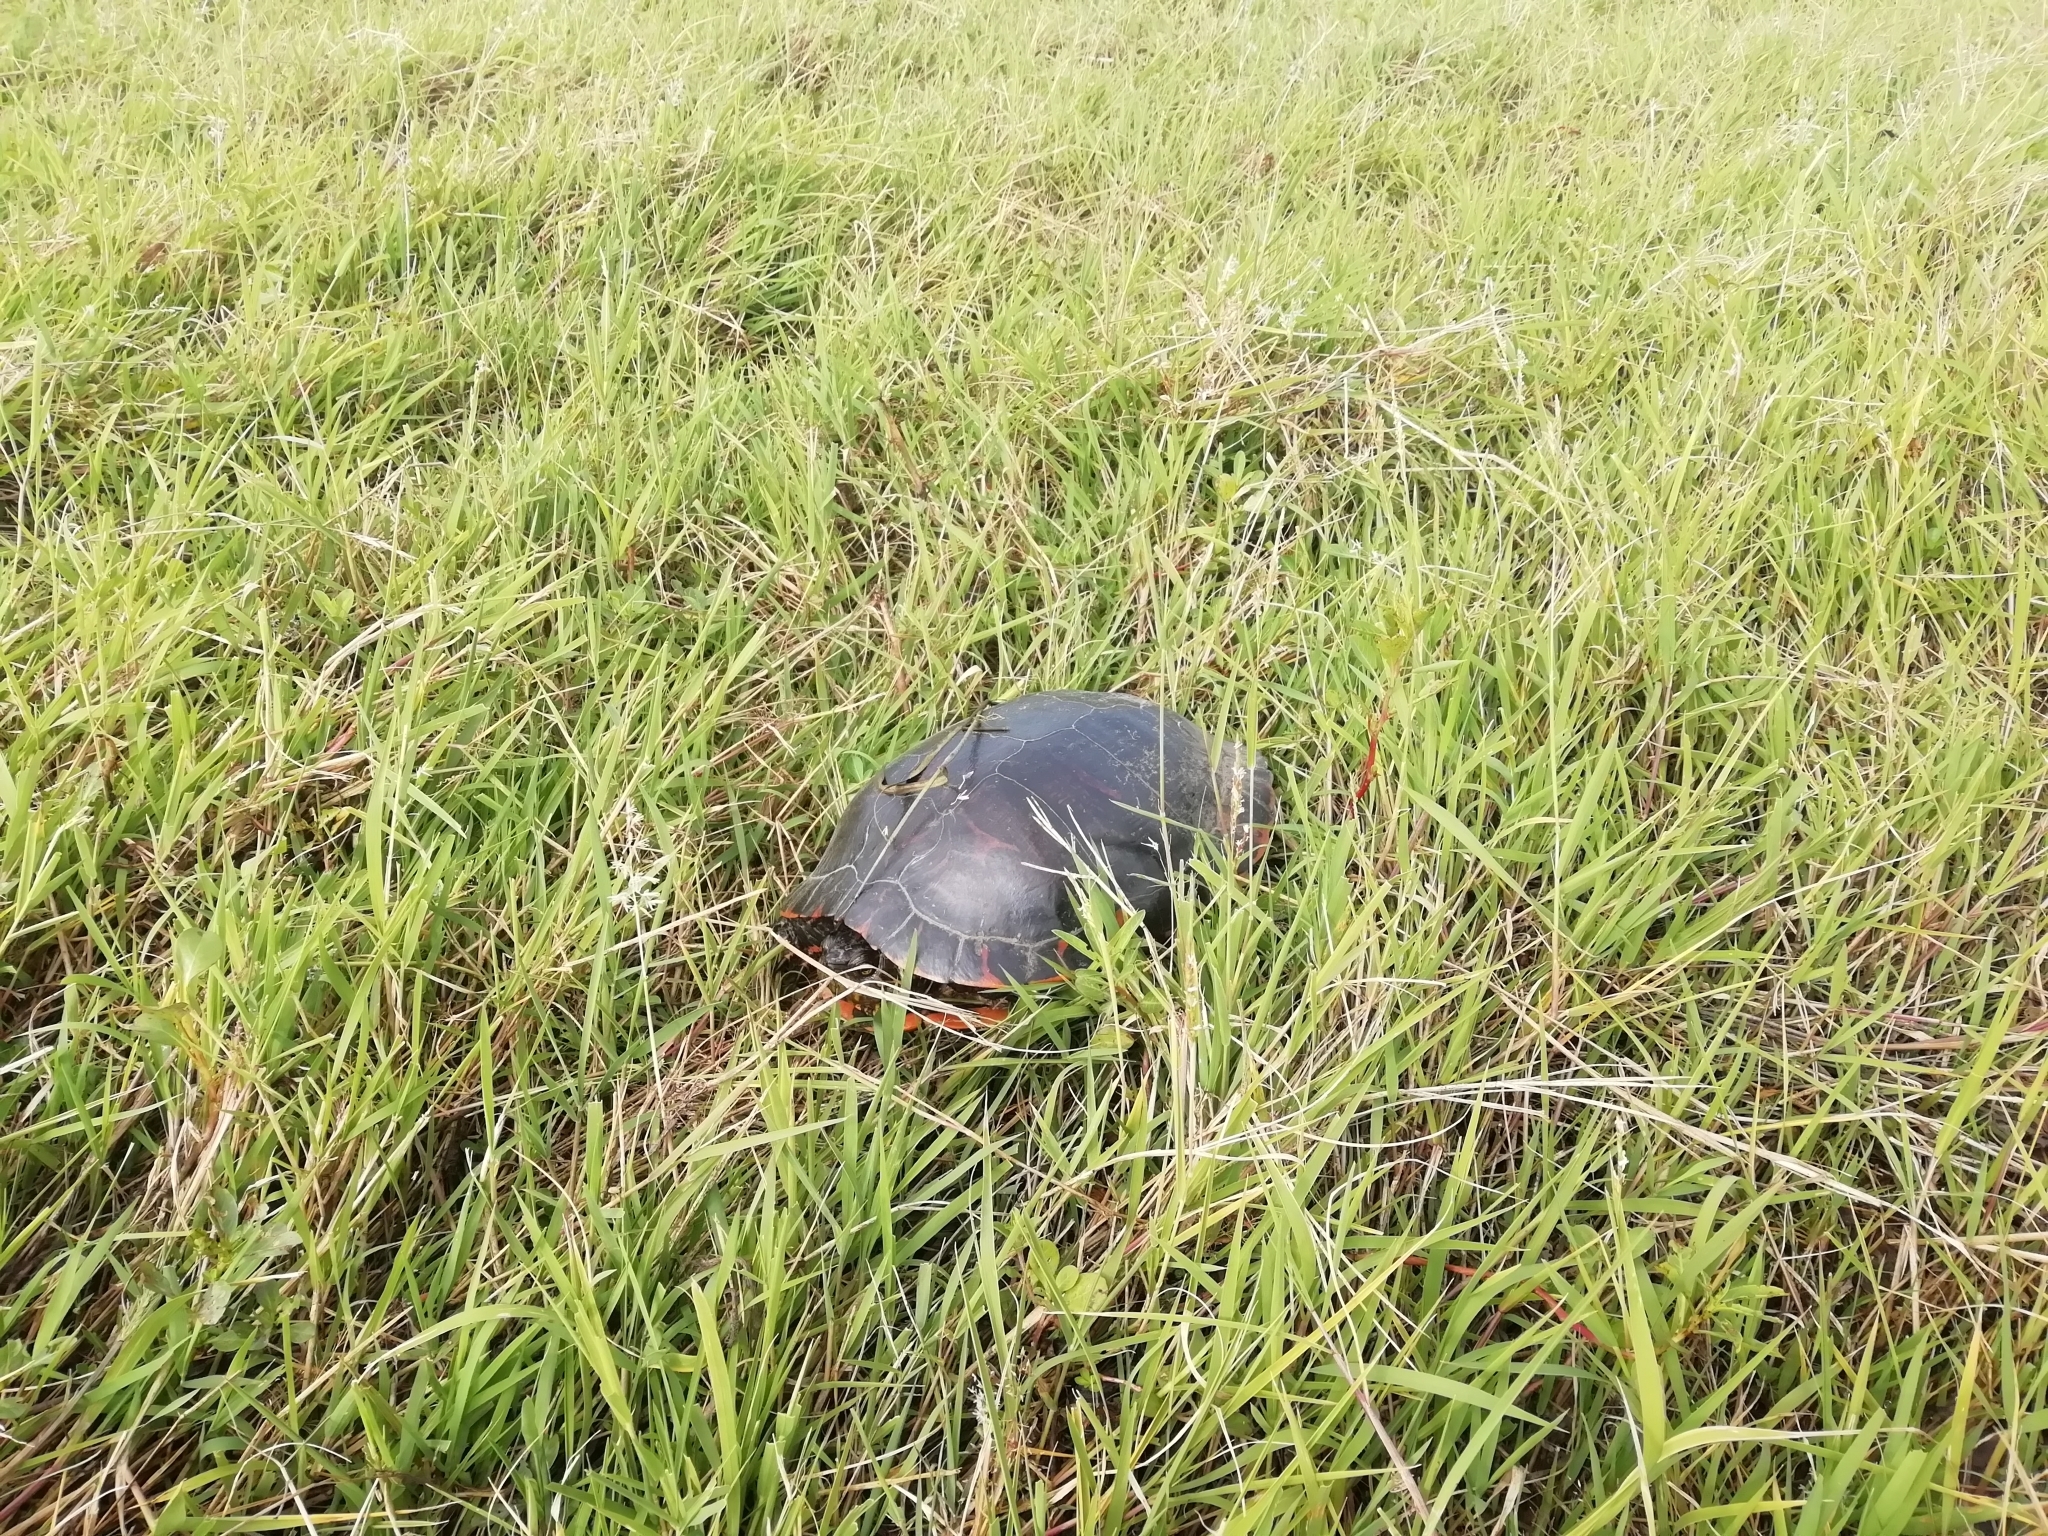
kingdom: Animalia
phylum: Chordata
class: Testudines
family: Emydidae
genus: Trachemys
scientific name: Trachemys dorbigni
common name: Black-bellied slider
